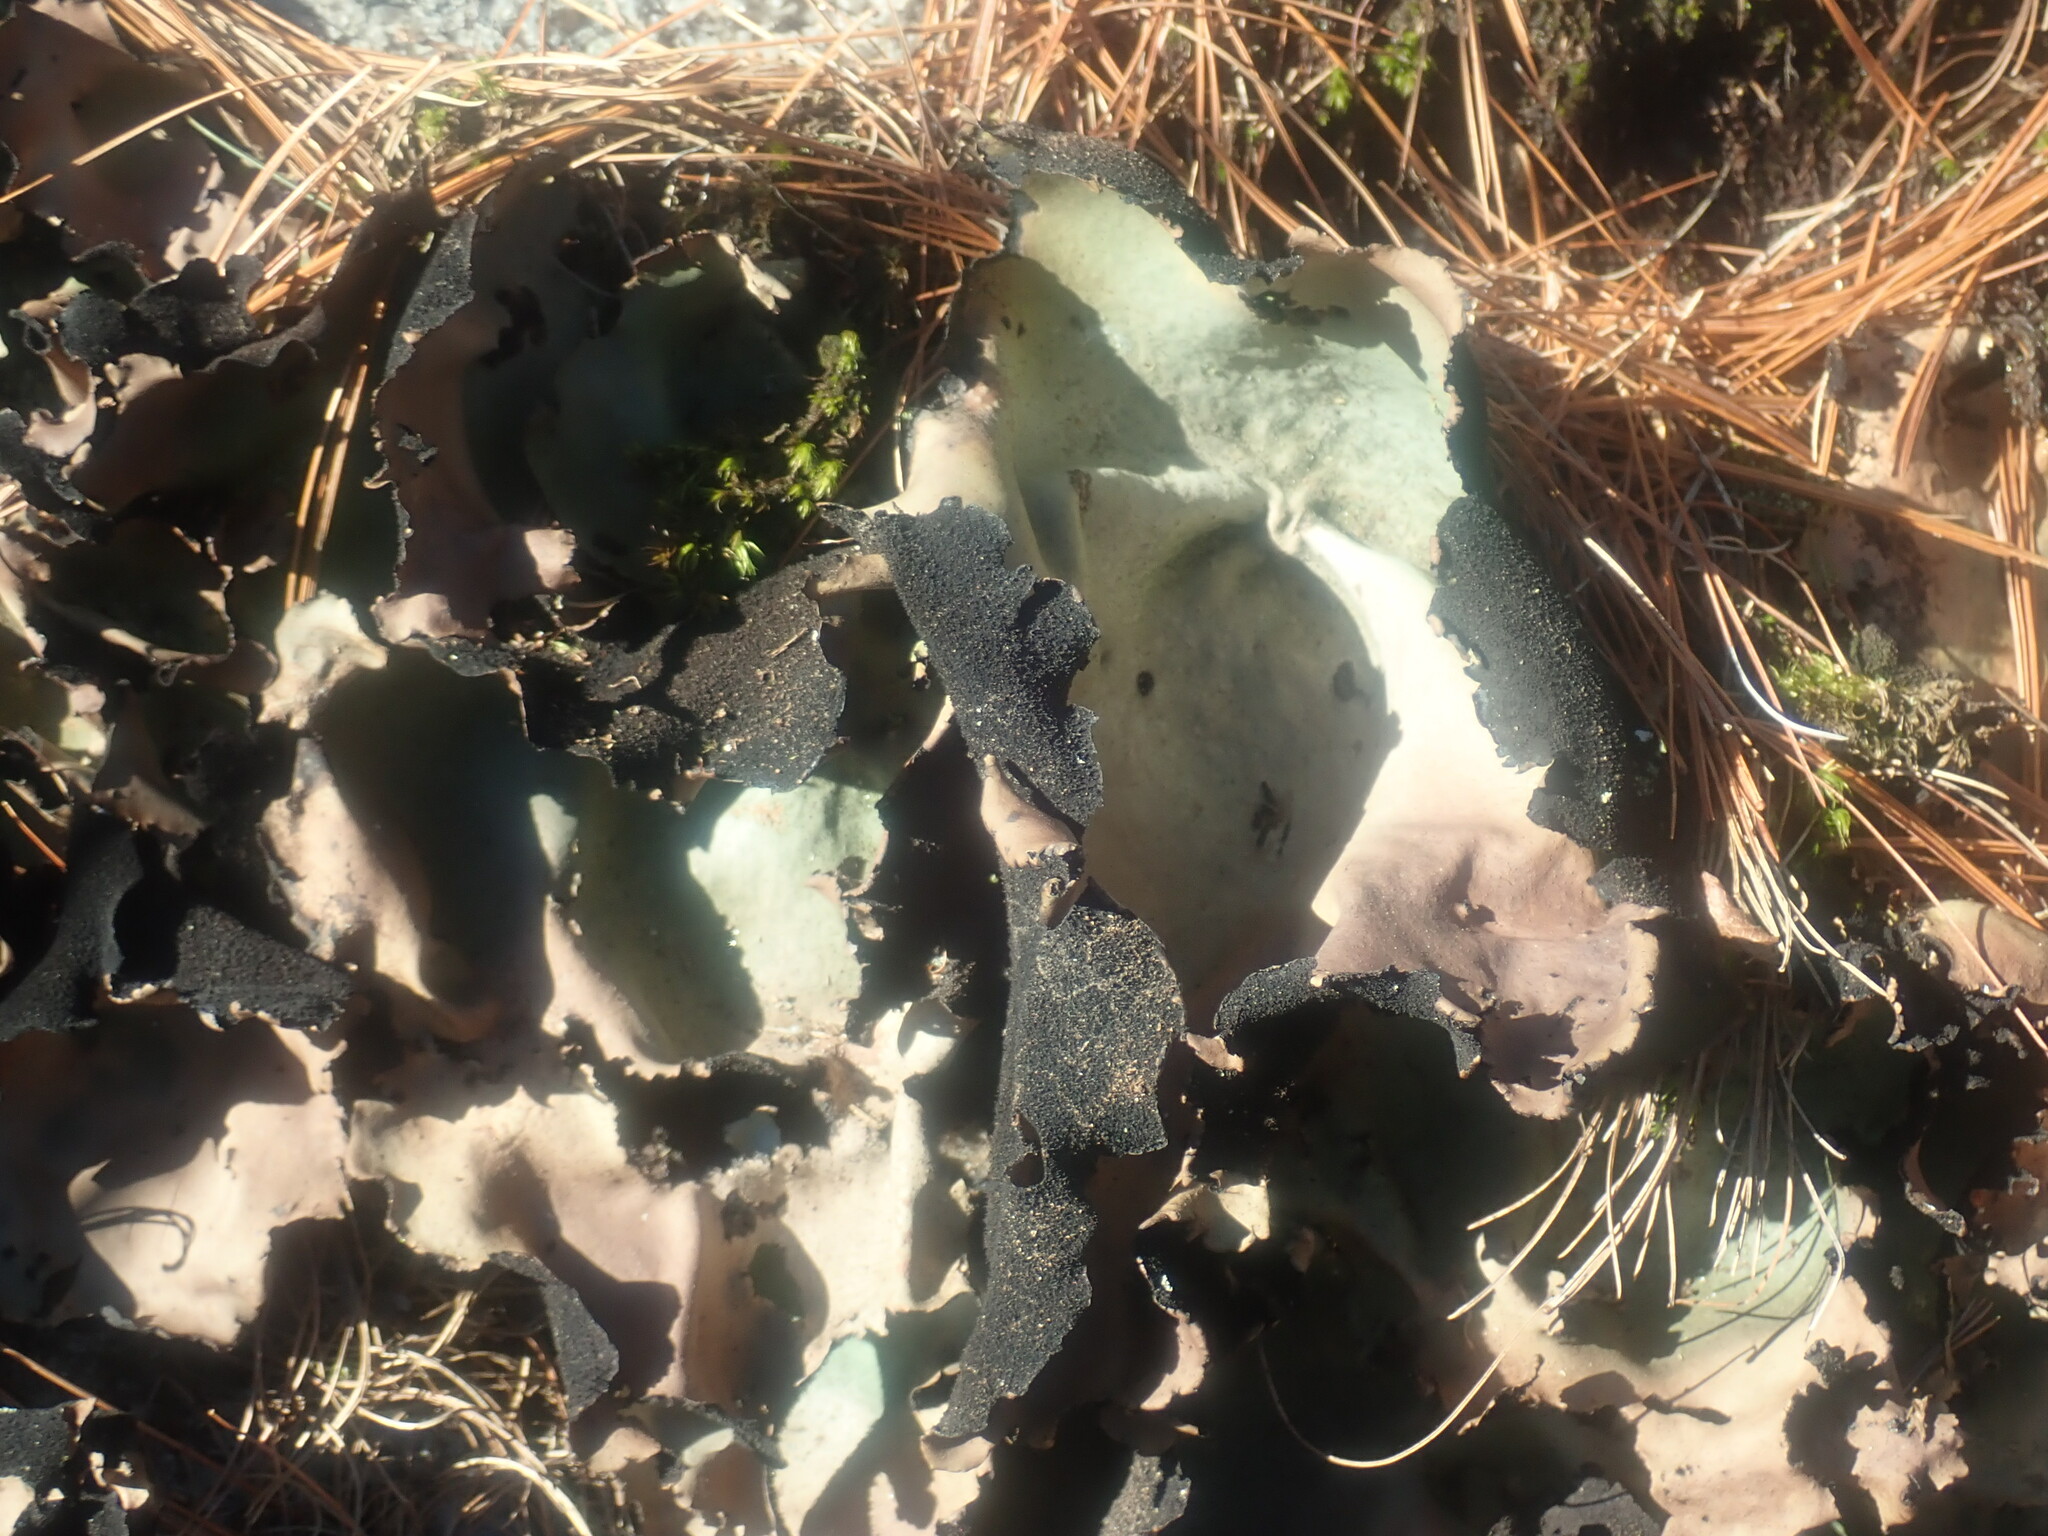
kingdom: Fungi
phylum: Ascomycota
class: Lecanoromycetes
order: Umbilicariales
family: Umbilicariaceae
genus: Umbilicaria
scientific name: Umbilicaria mammulata
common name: Smooth rock tripe
